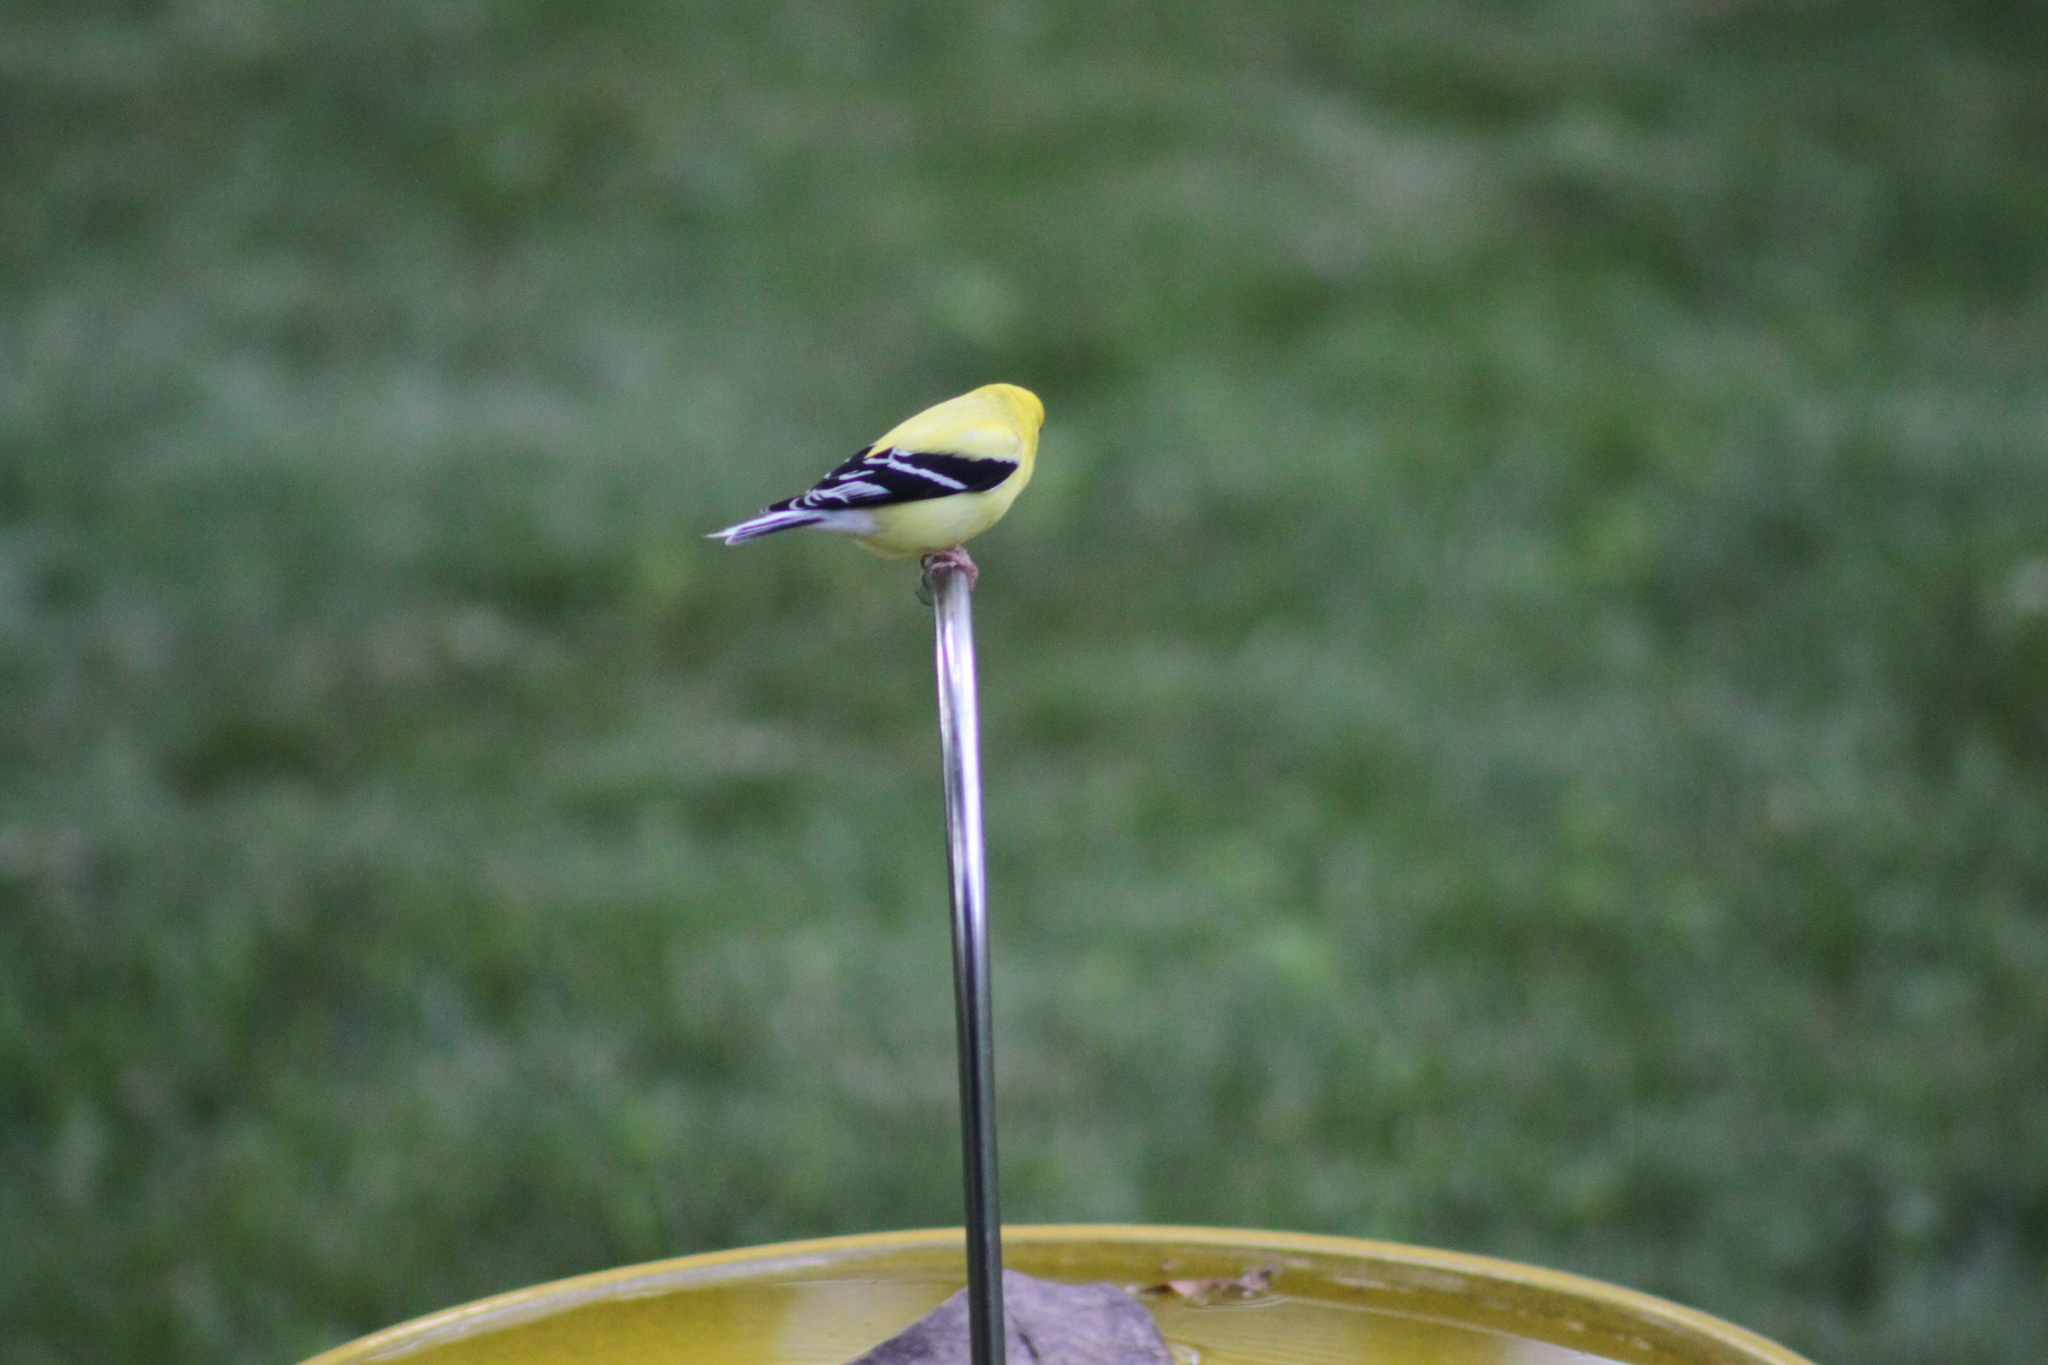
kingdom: Animalia
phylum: Chordata
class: Aves
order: Passeriformes
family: Fringillidae
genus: Spinus
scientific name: Spinus tristis
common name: American goldfinch
